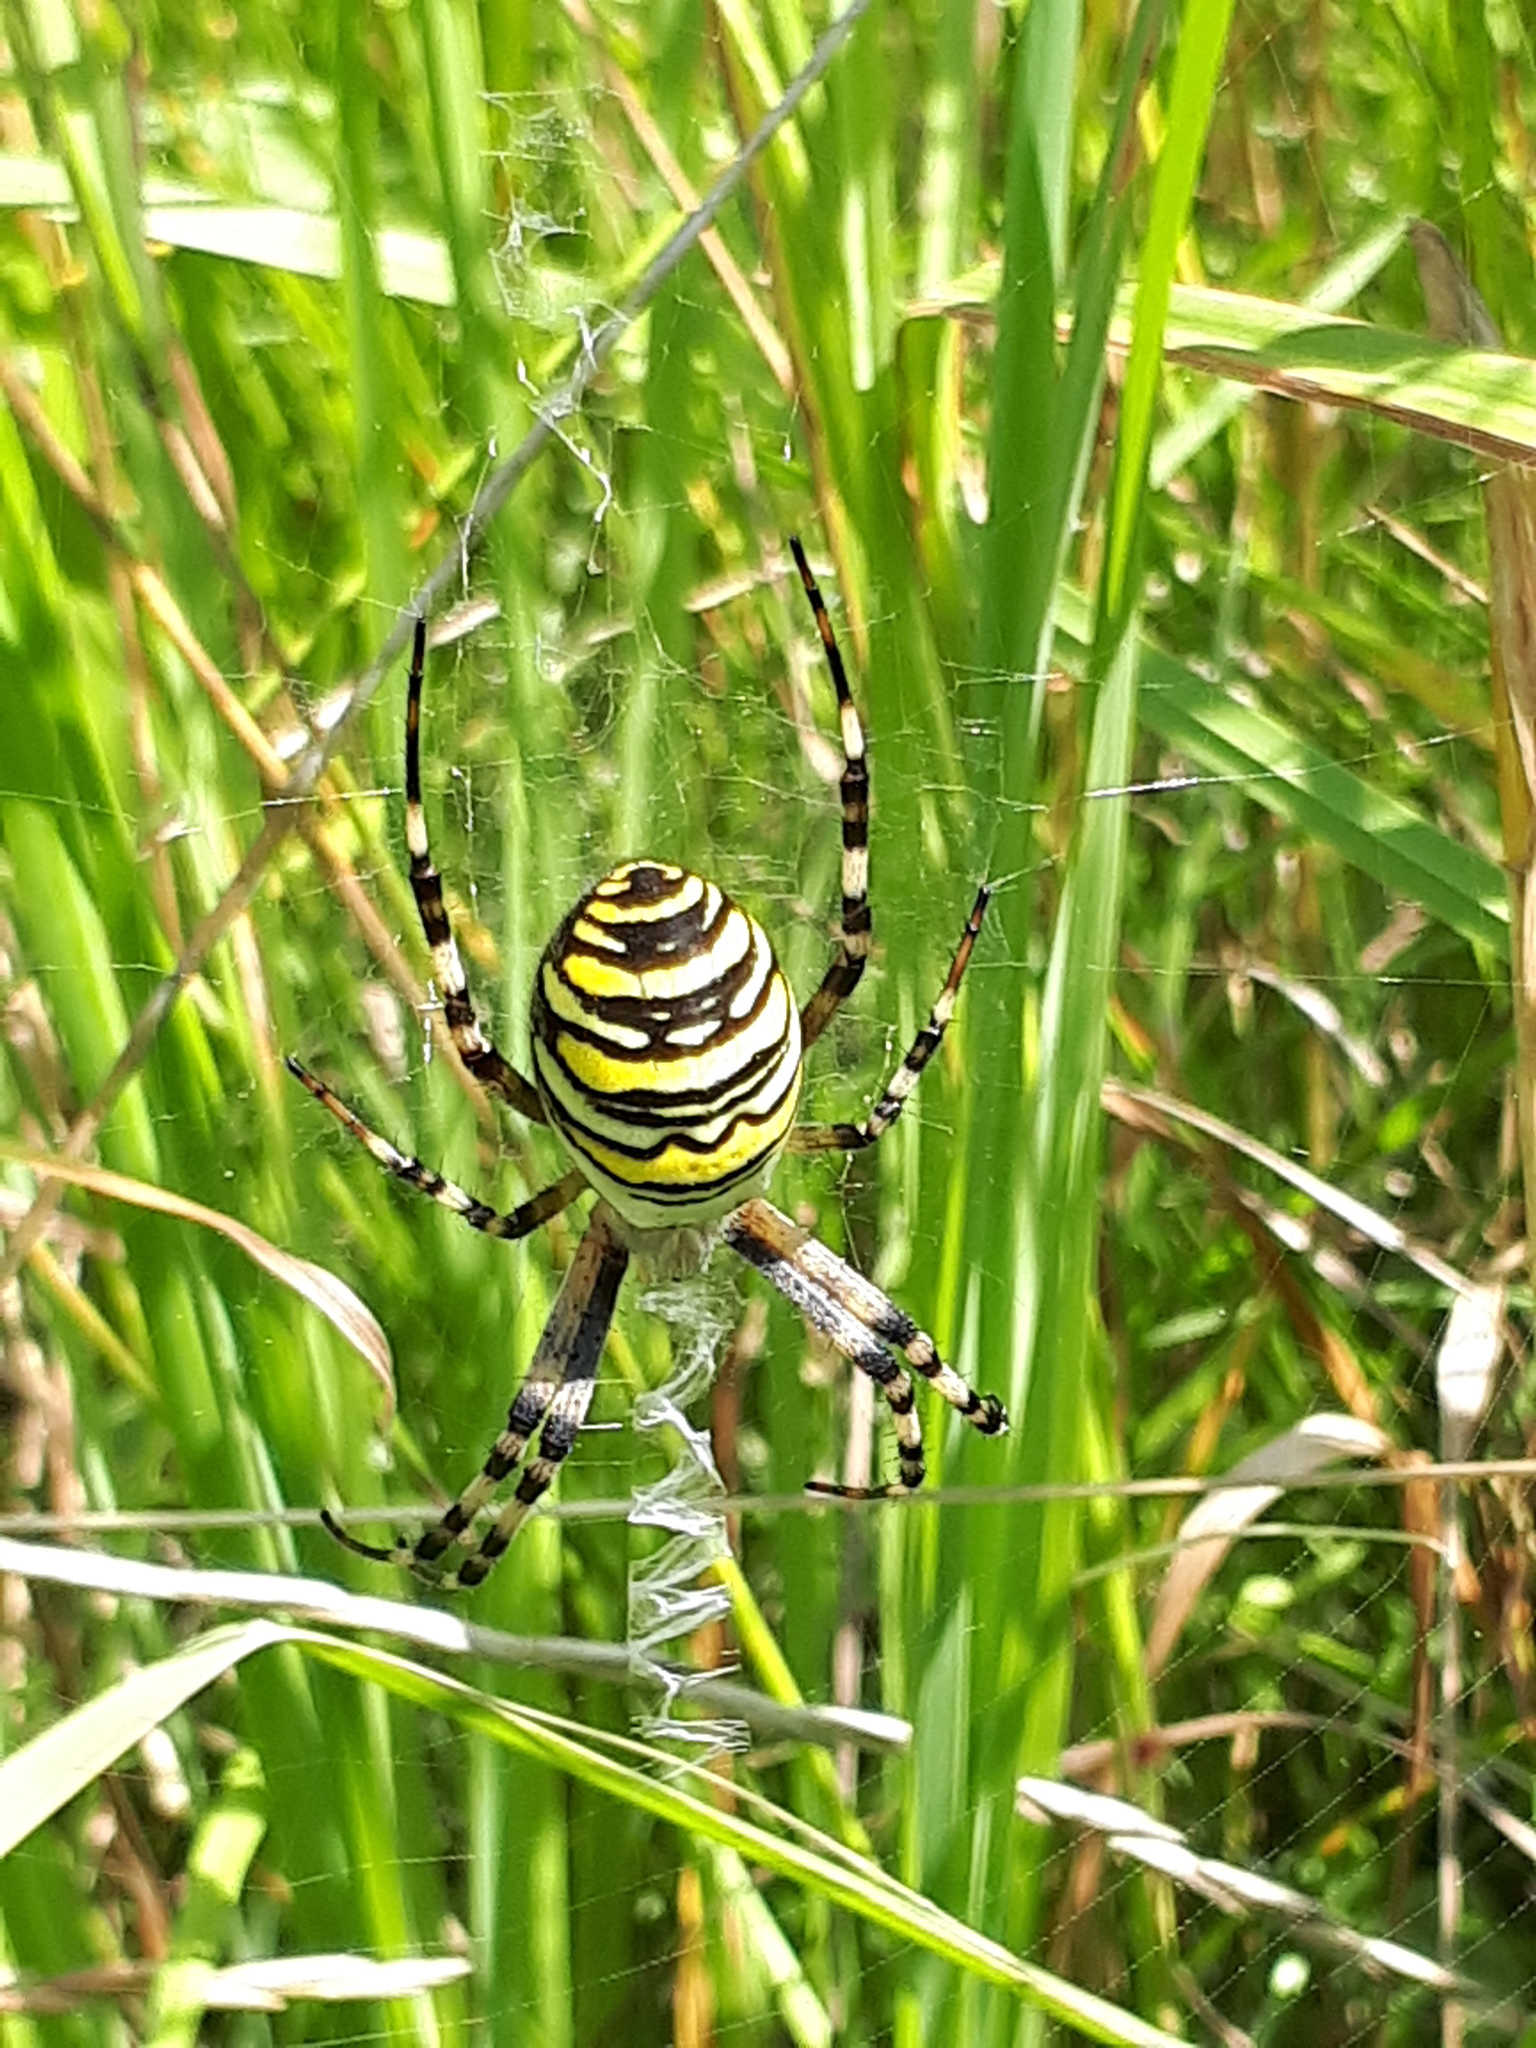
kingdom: Animalia
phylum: Arthropoda
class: Arachnida
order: Araneae
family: Araneidae
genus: Argiope
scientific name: Argiope bruennichi
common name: Wasp spider
